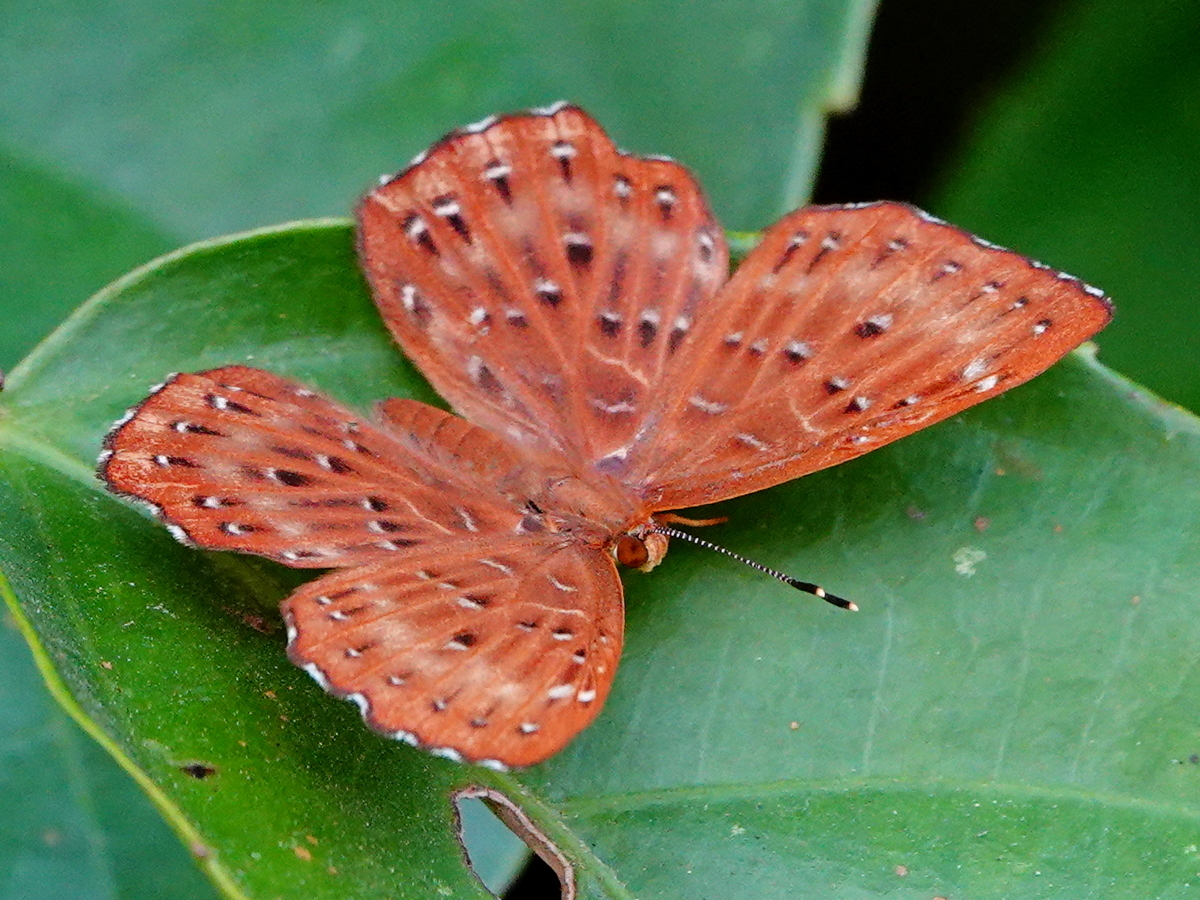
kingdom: Animalia
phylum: Arthropoda
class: Insecta
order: Lepidoptera
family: Riodinidae
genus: Zemeros
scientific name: Zemeros flegyas
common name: Punchinello
